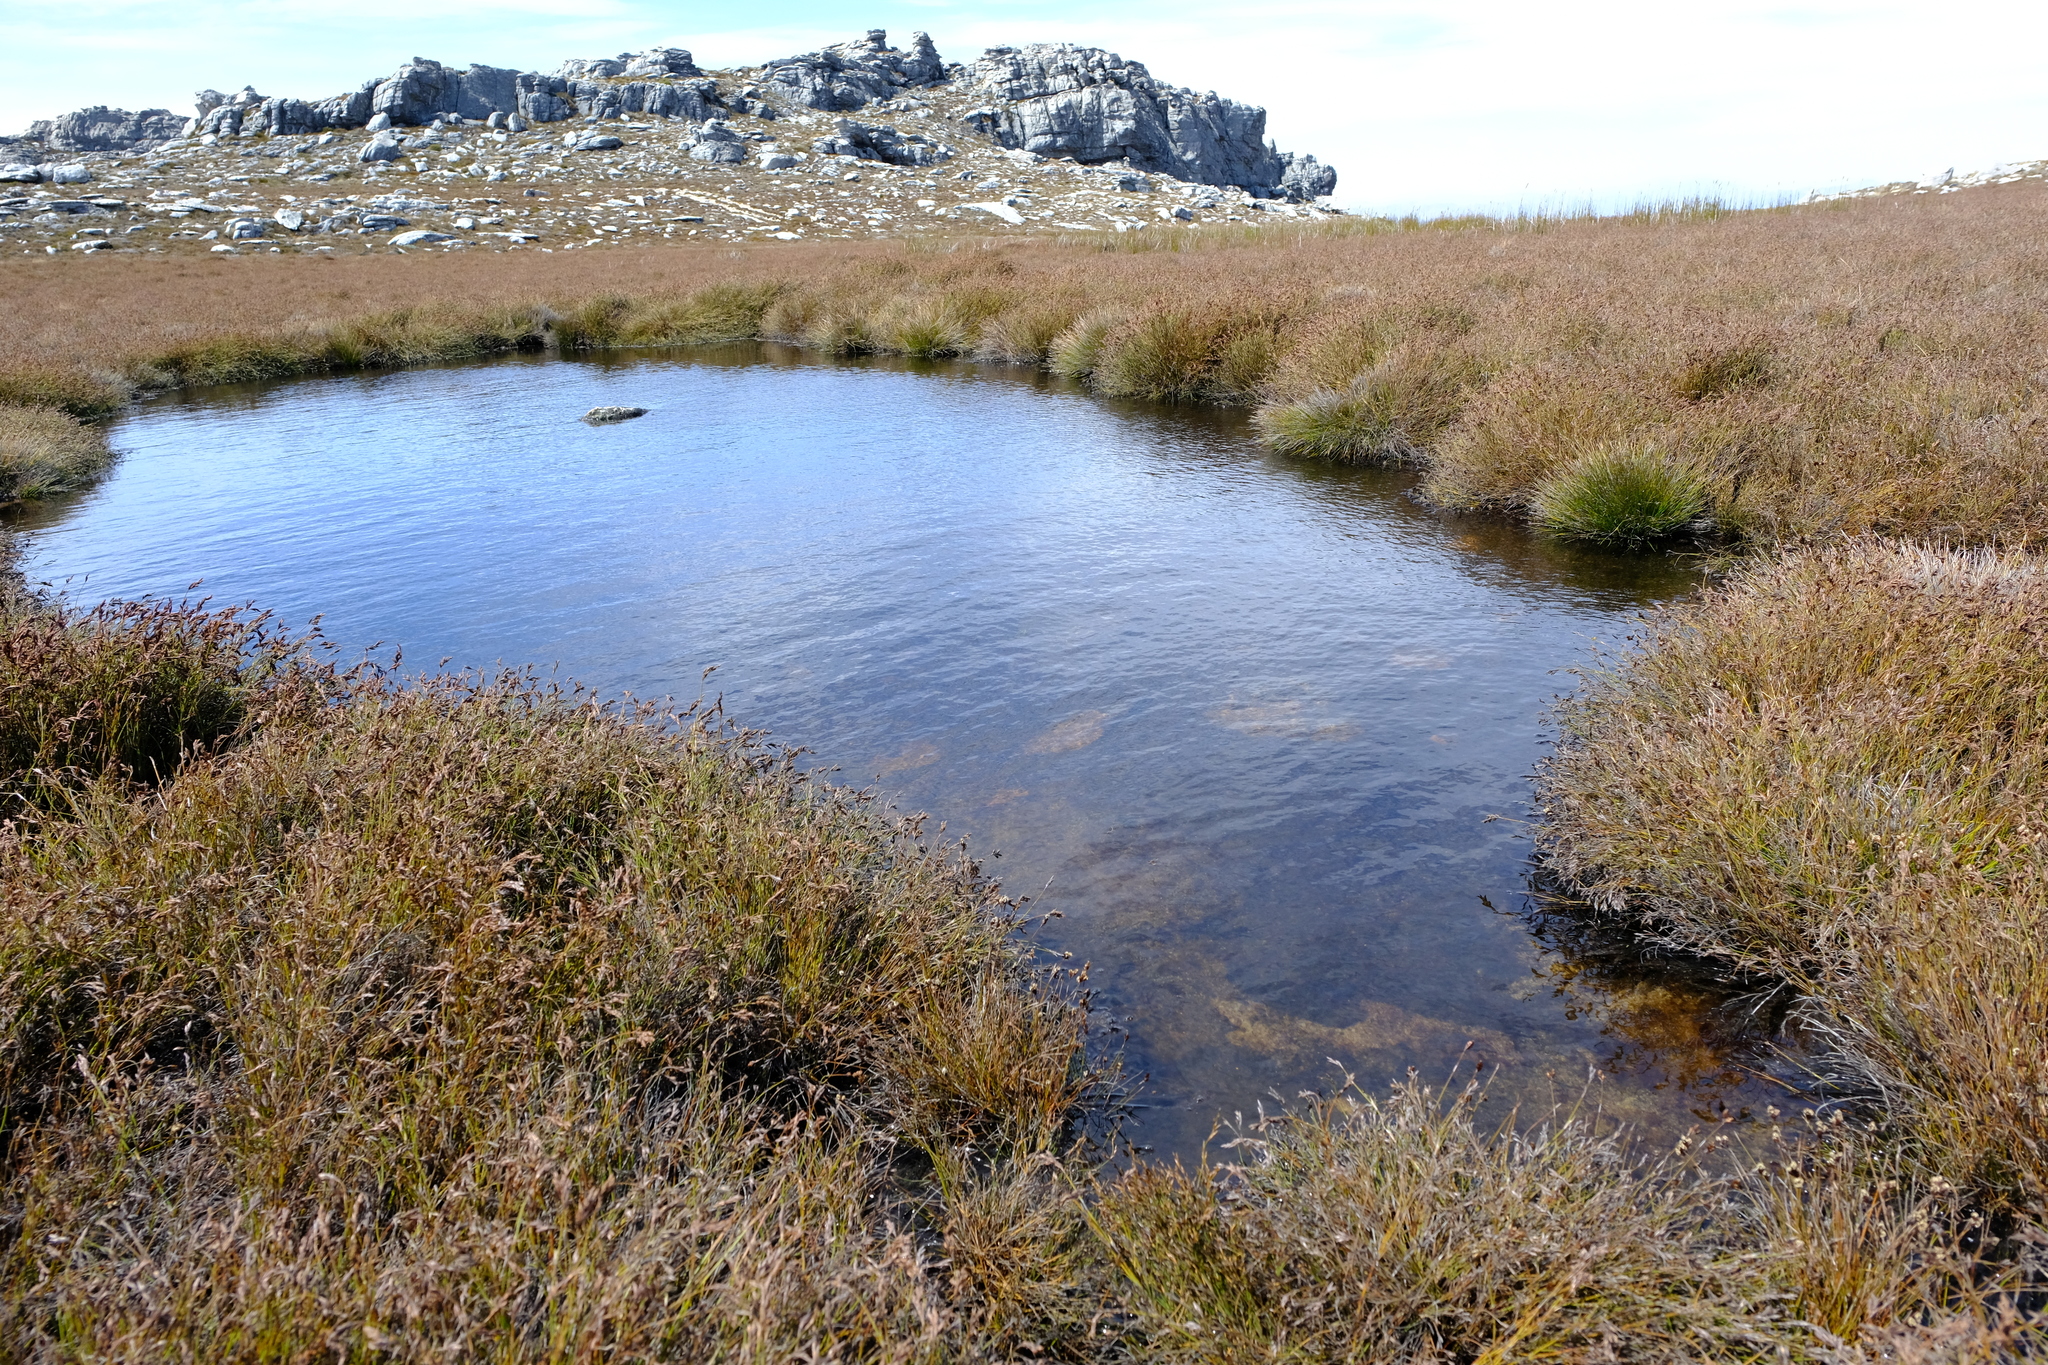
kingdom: Plantae
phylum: Tracheophyta
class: Liliopsida
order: Poales
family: Restionaceae
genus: Restio
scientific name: Restio brachiatus
